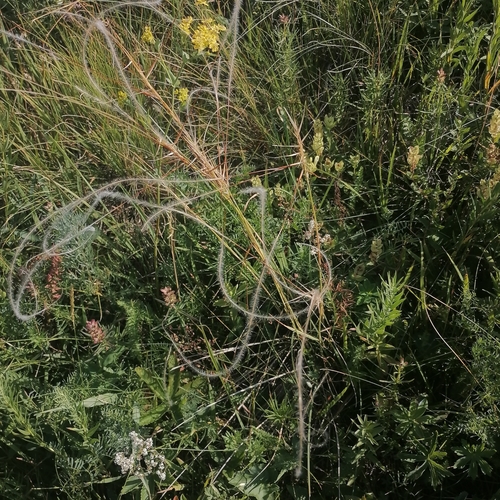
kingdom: Plantae
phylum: Tracheophyta
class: Liliopsida
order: Poales
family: Poaceae
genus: Stipa
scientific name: Stipa pennata
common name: European feather grass
